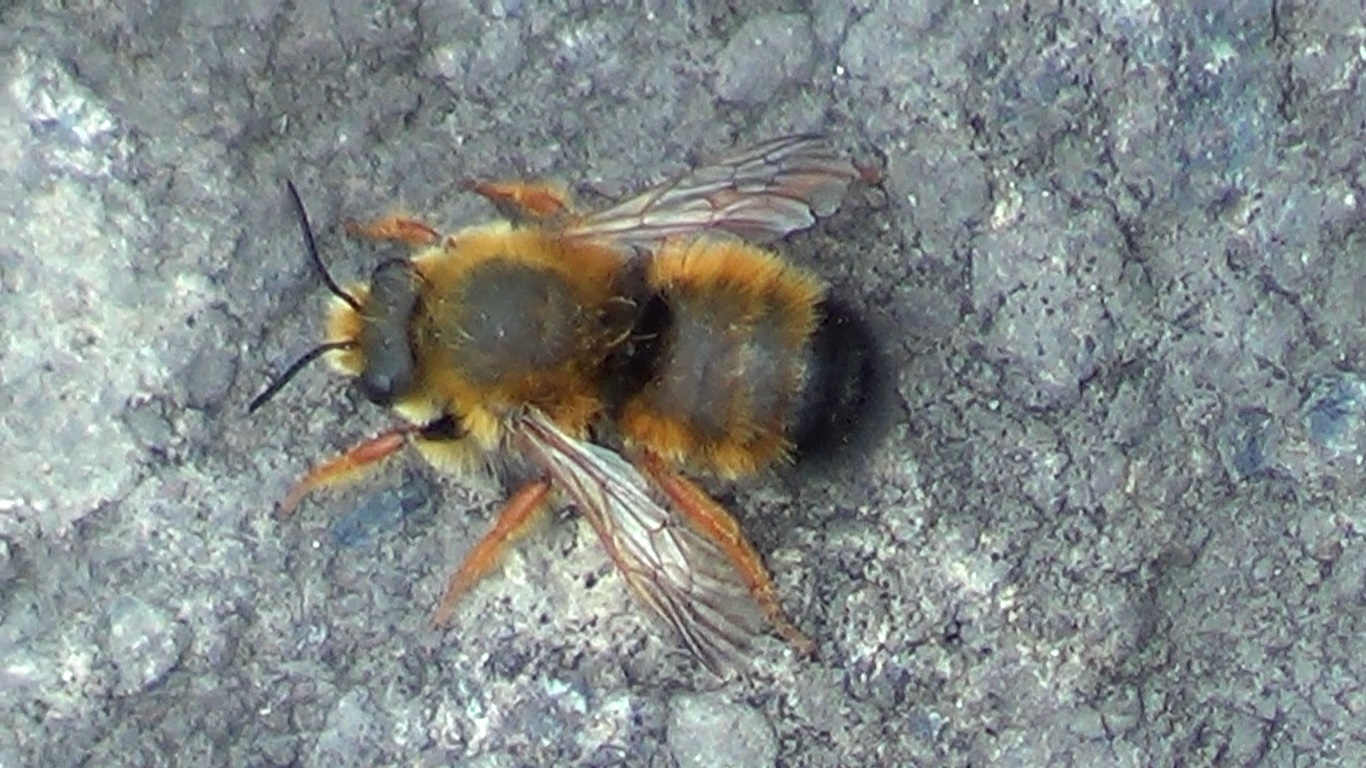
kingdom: Animalia
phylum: Arthropoda
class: Insecta
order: Hymenoptera
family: Megachilidae
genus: Megachile
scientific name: Megachile sicula
